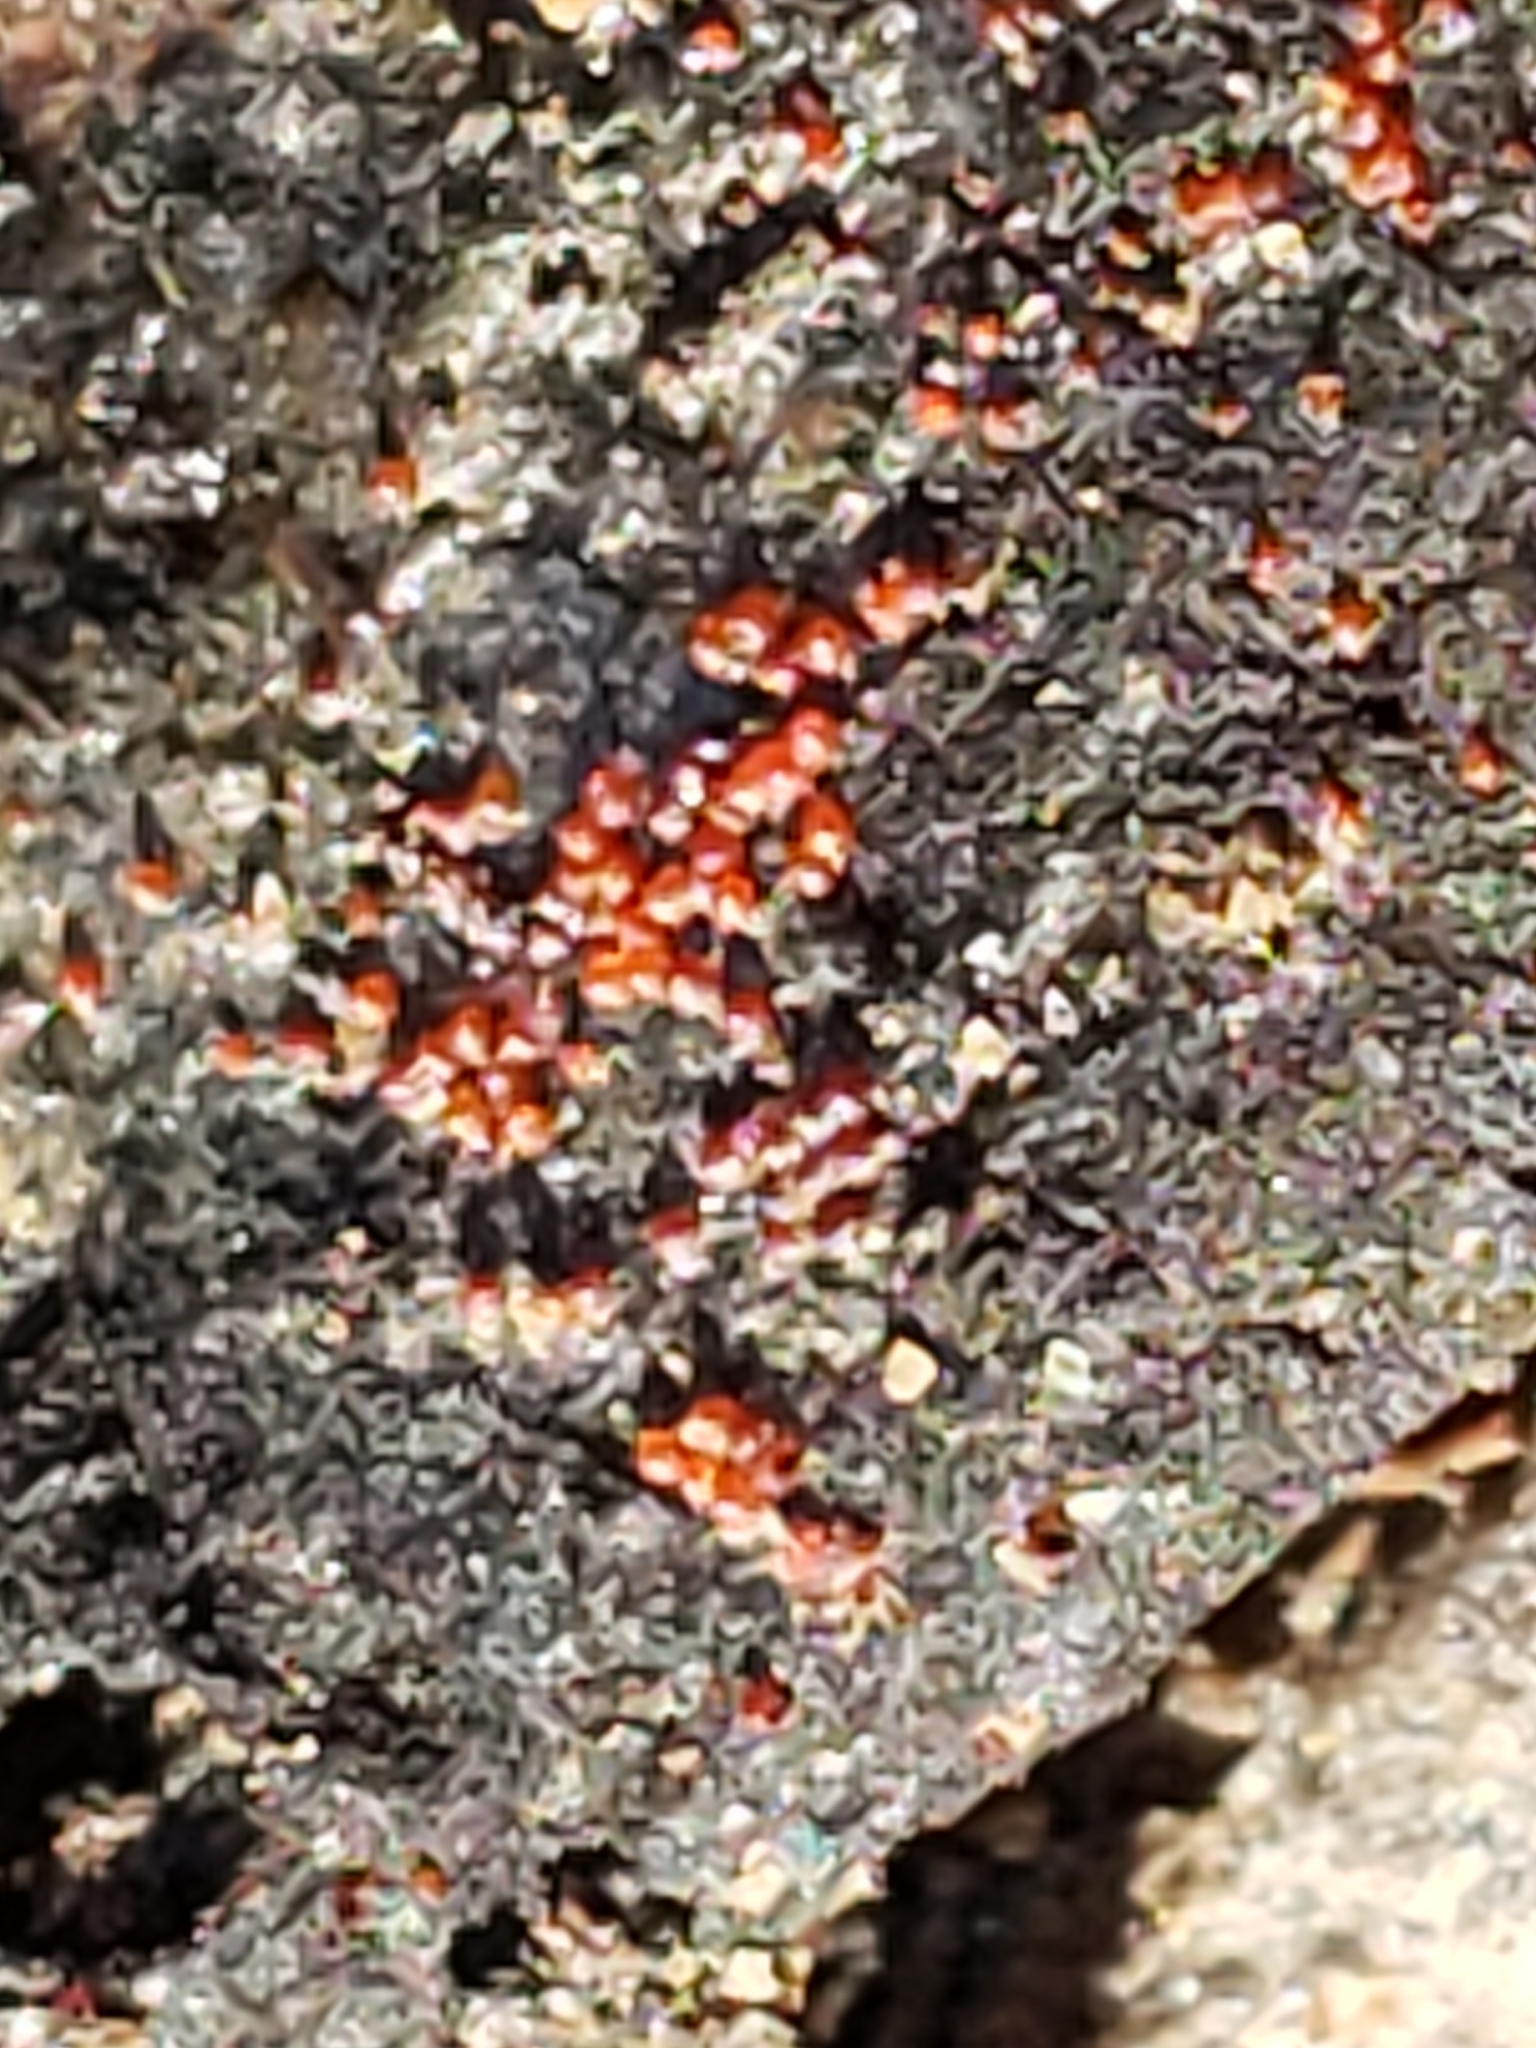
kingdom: Fungi
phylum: Ascomycota
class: Sordariomycetes
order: Hypocreales
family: Nectriaceae
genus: Dialonectria
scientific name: Dialonectria episphaeria
